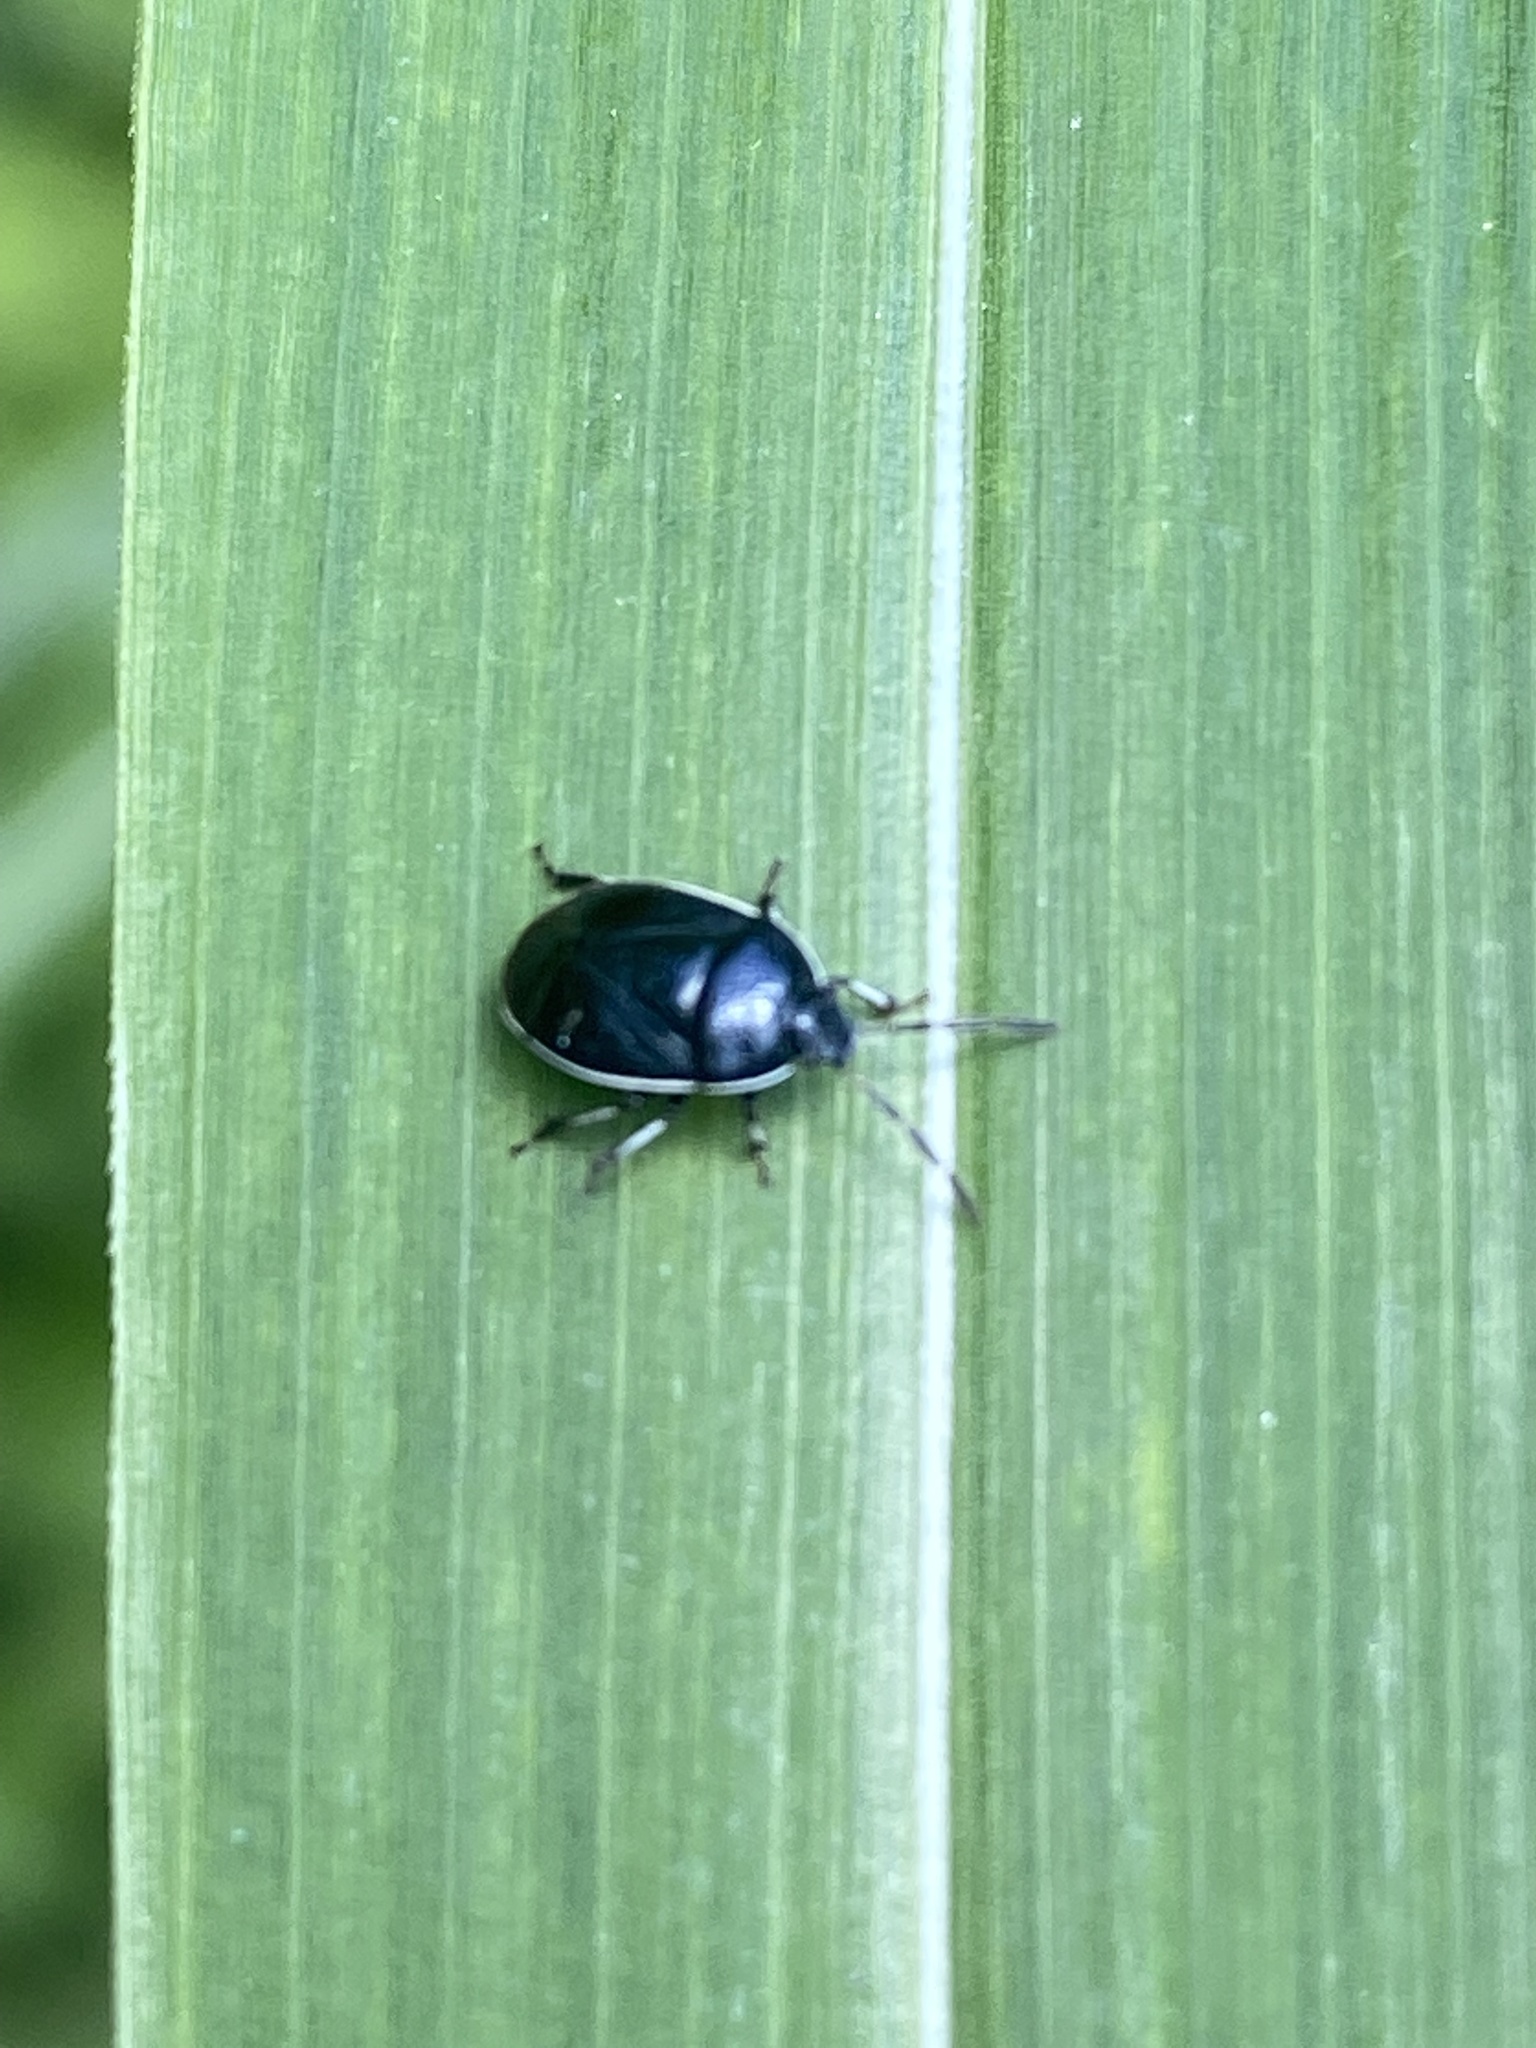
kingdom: Animalia
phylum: Arthropoda
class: Insecta
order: Hemiptera
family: Cydnidae
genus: Sehirus
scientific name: Sehirus cinctus
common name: White-margined burrower bug
